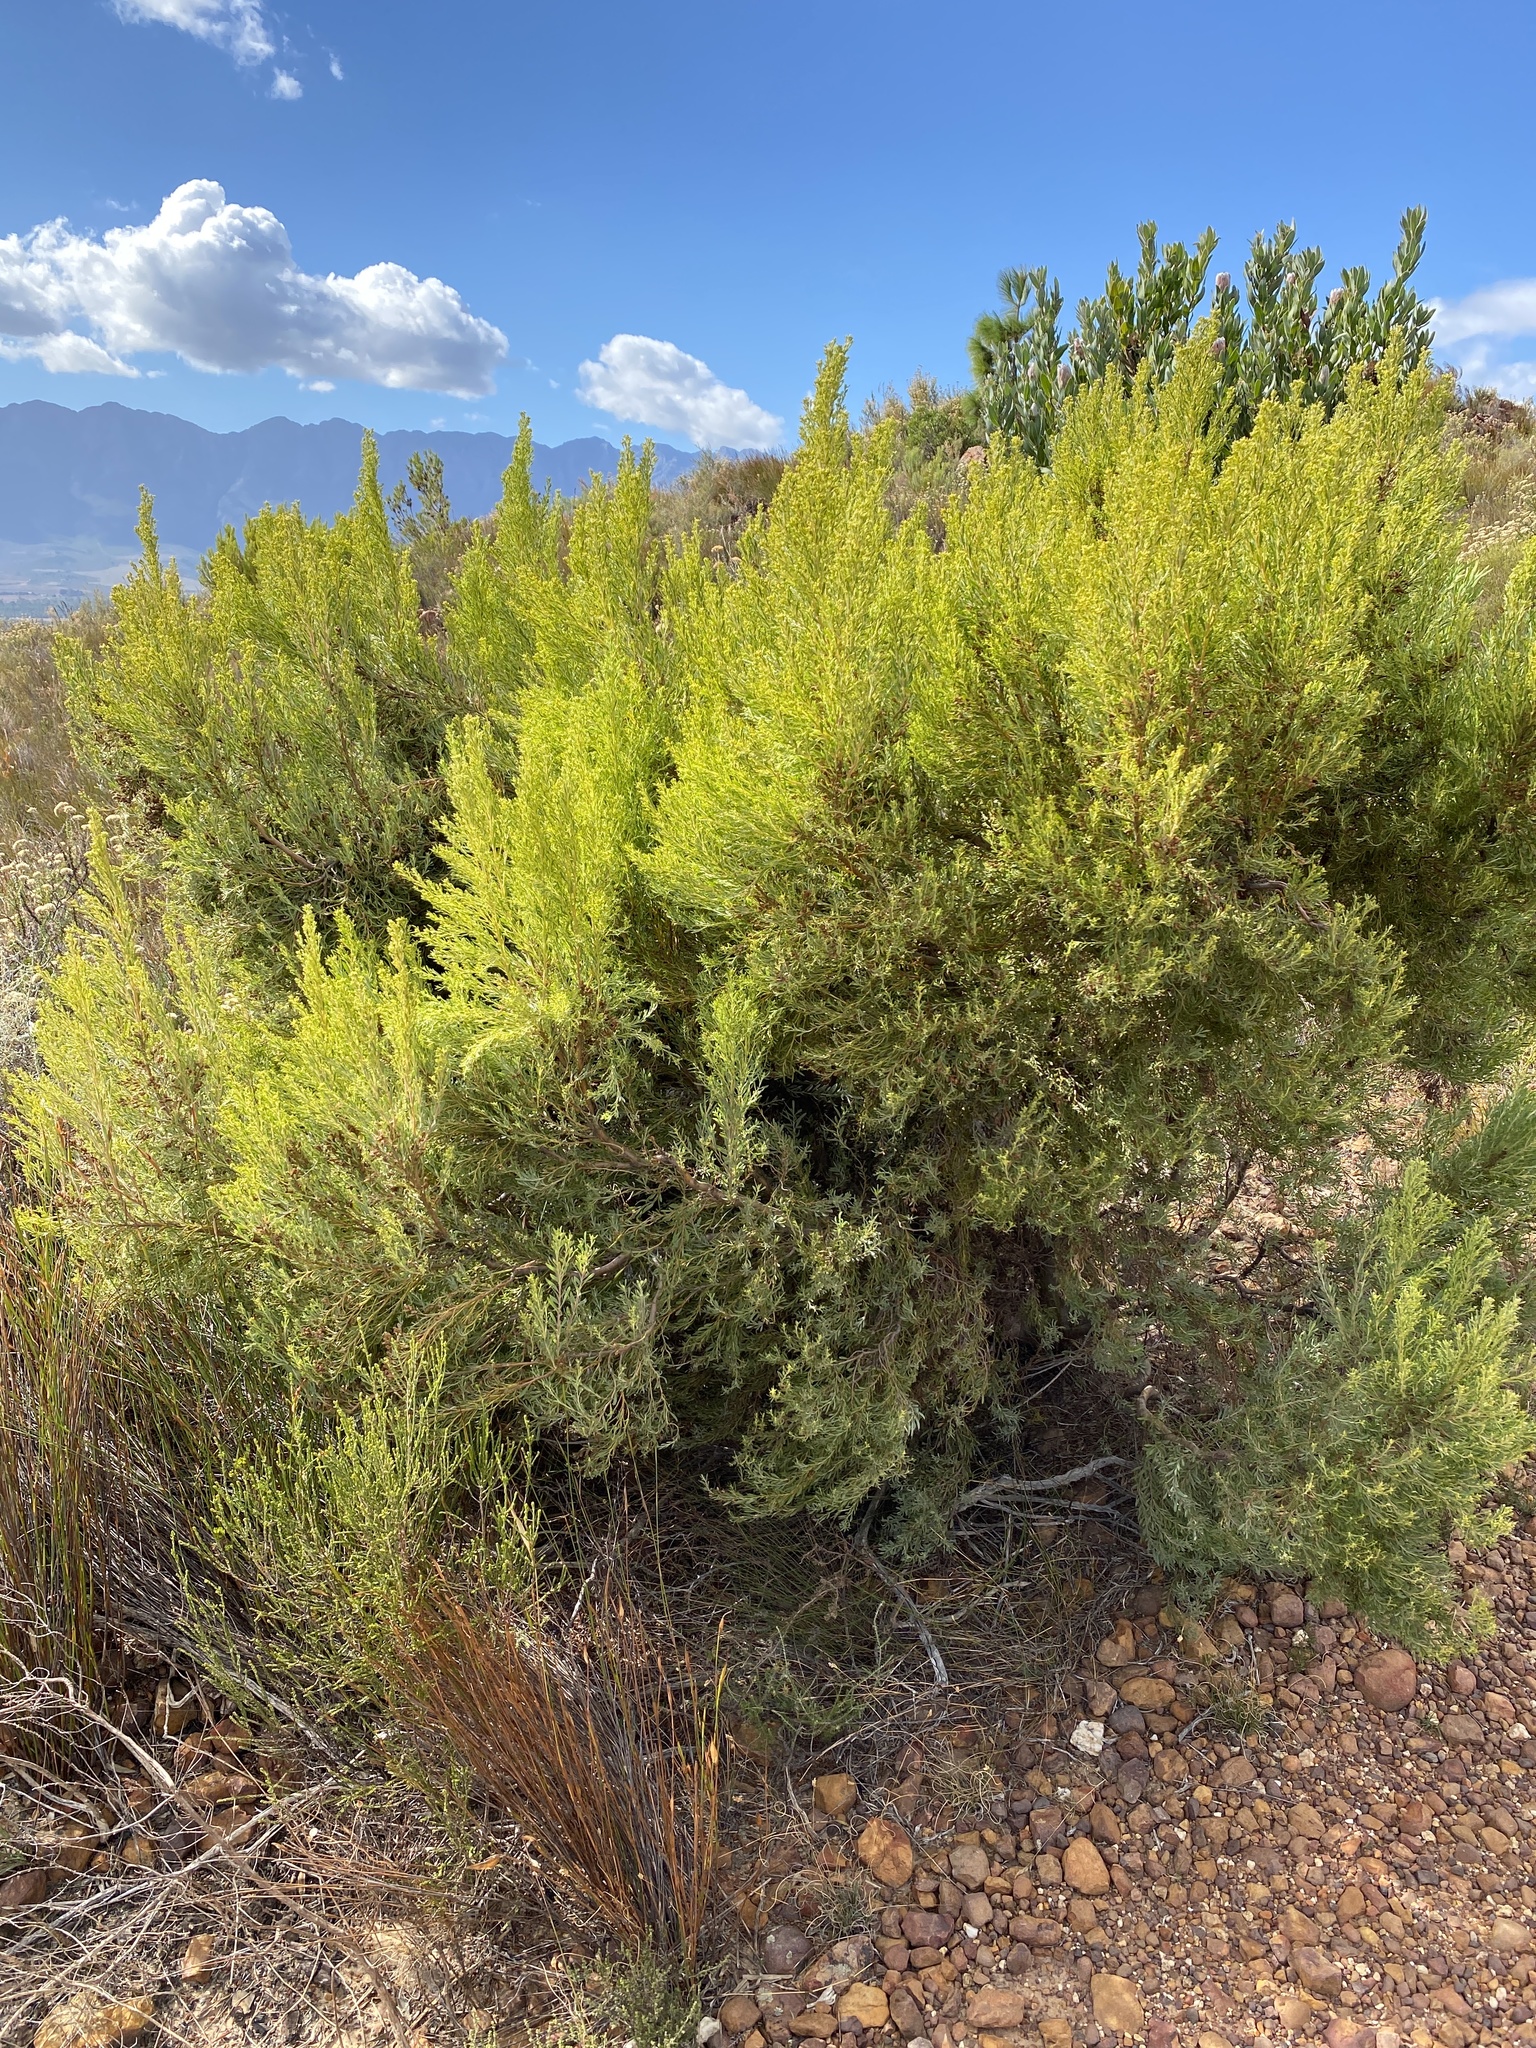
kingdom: Plantae
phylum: Tracheophyta
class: Magnoliopsida
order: Proteales
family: Proteaceae
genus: Leucadendron
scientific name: Leucadendron rubrum
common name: Spinning top
